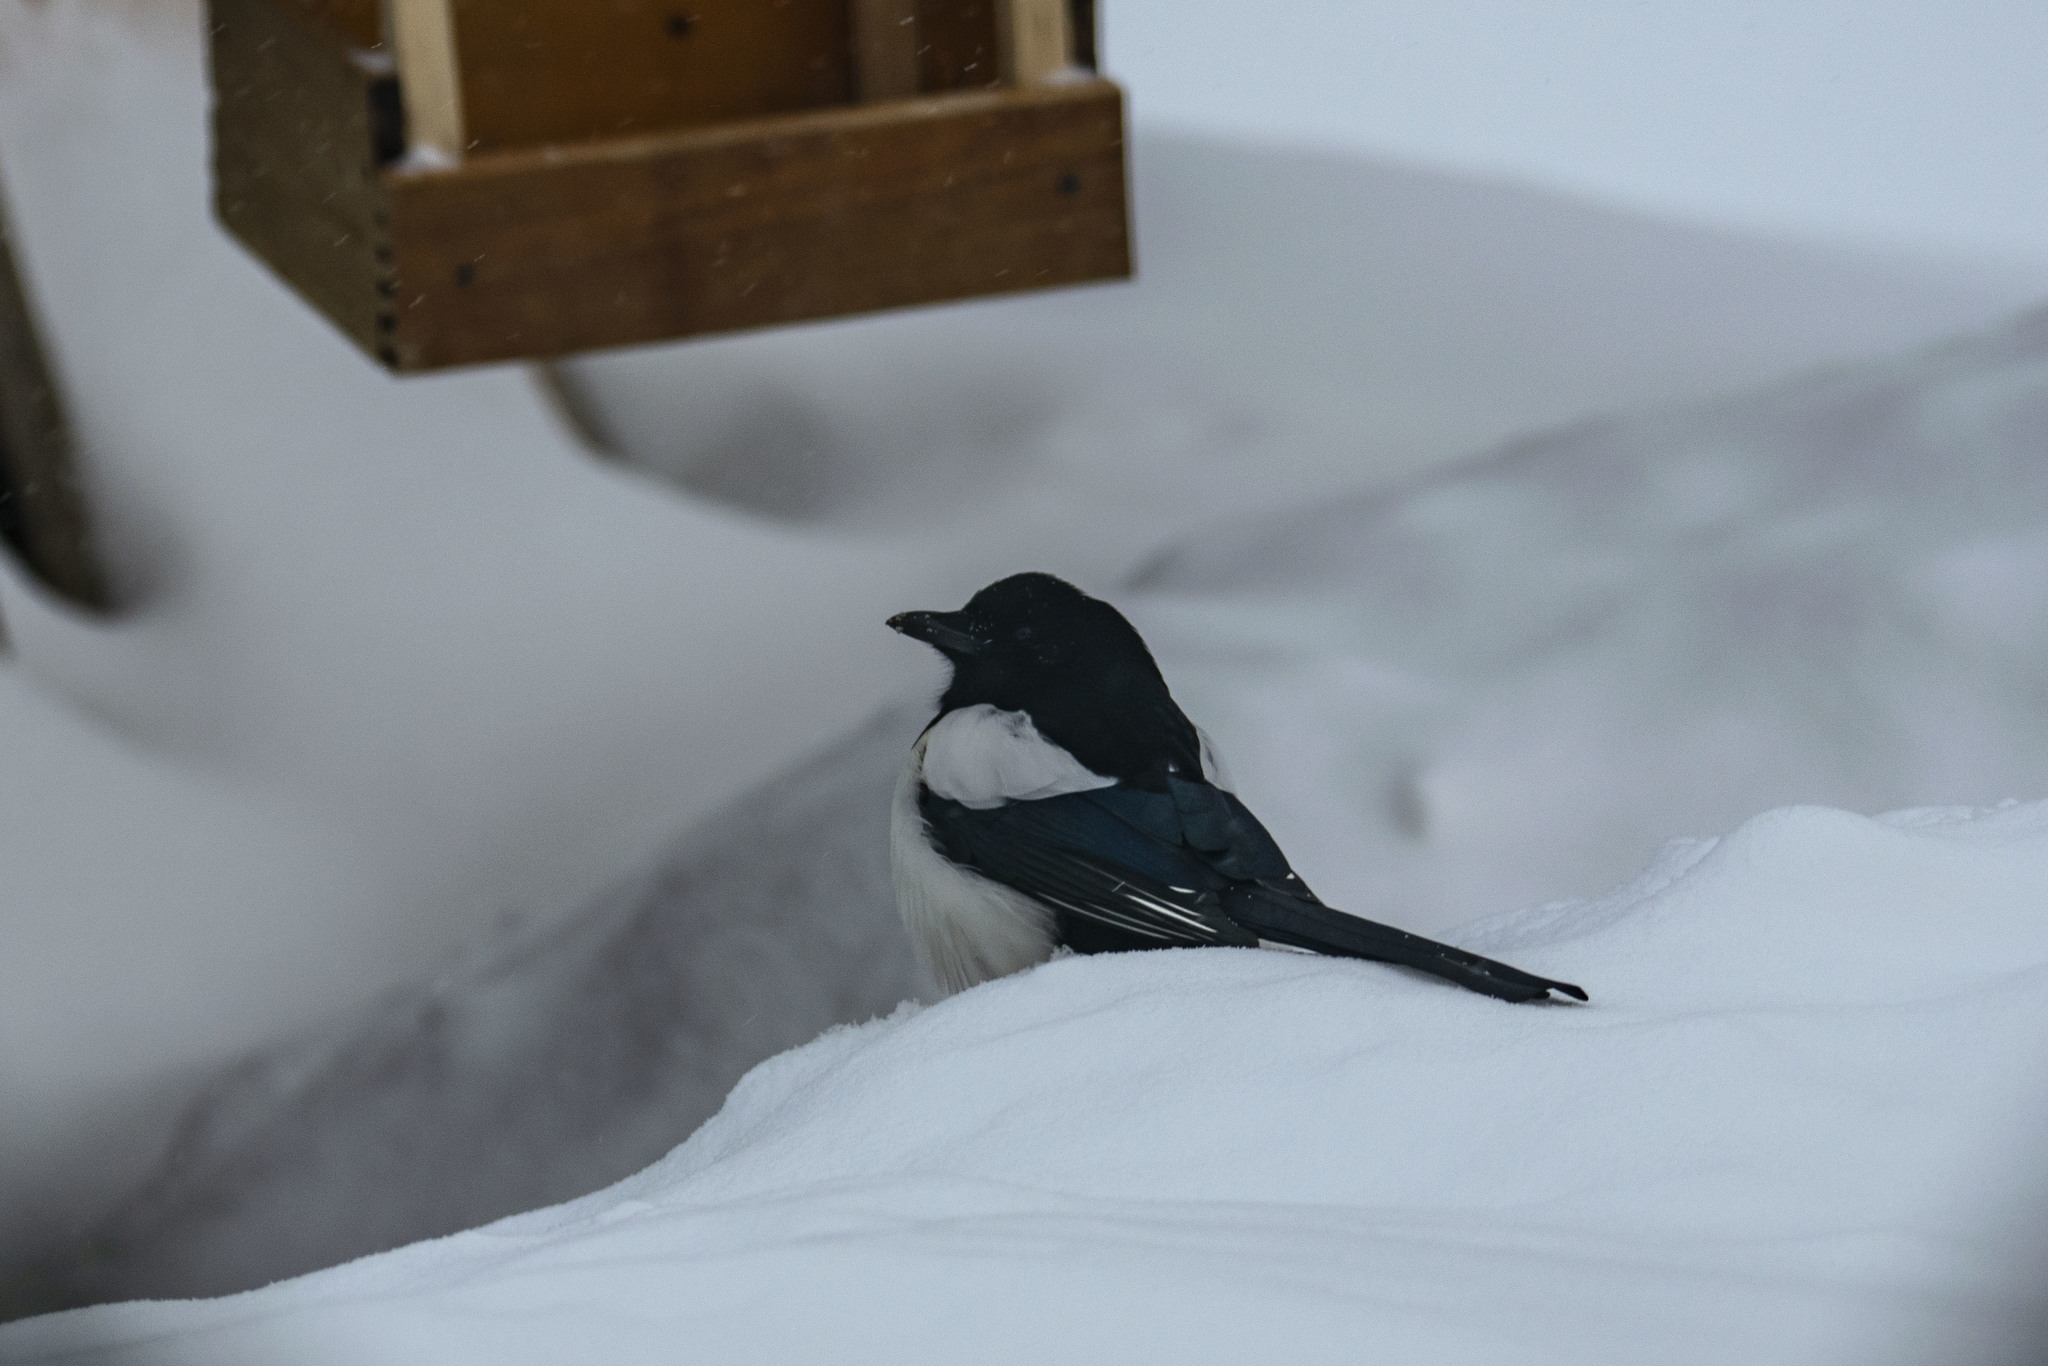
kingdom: Animalia
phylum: Chordata
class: Aves
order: Passeriformes
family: Corvidae
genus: Pica
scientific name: Pica pica
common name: Eurasian magpie
